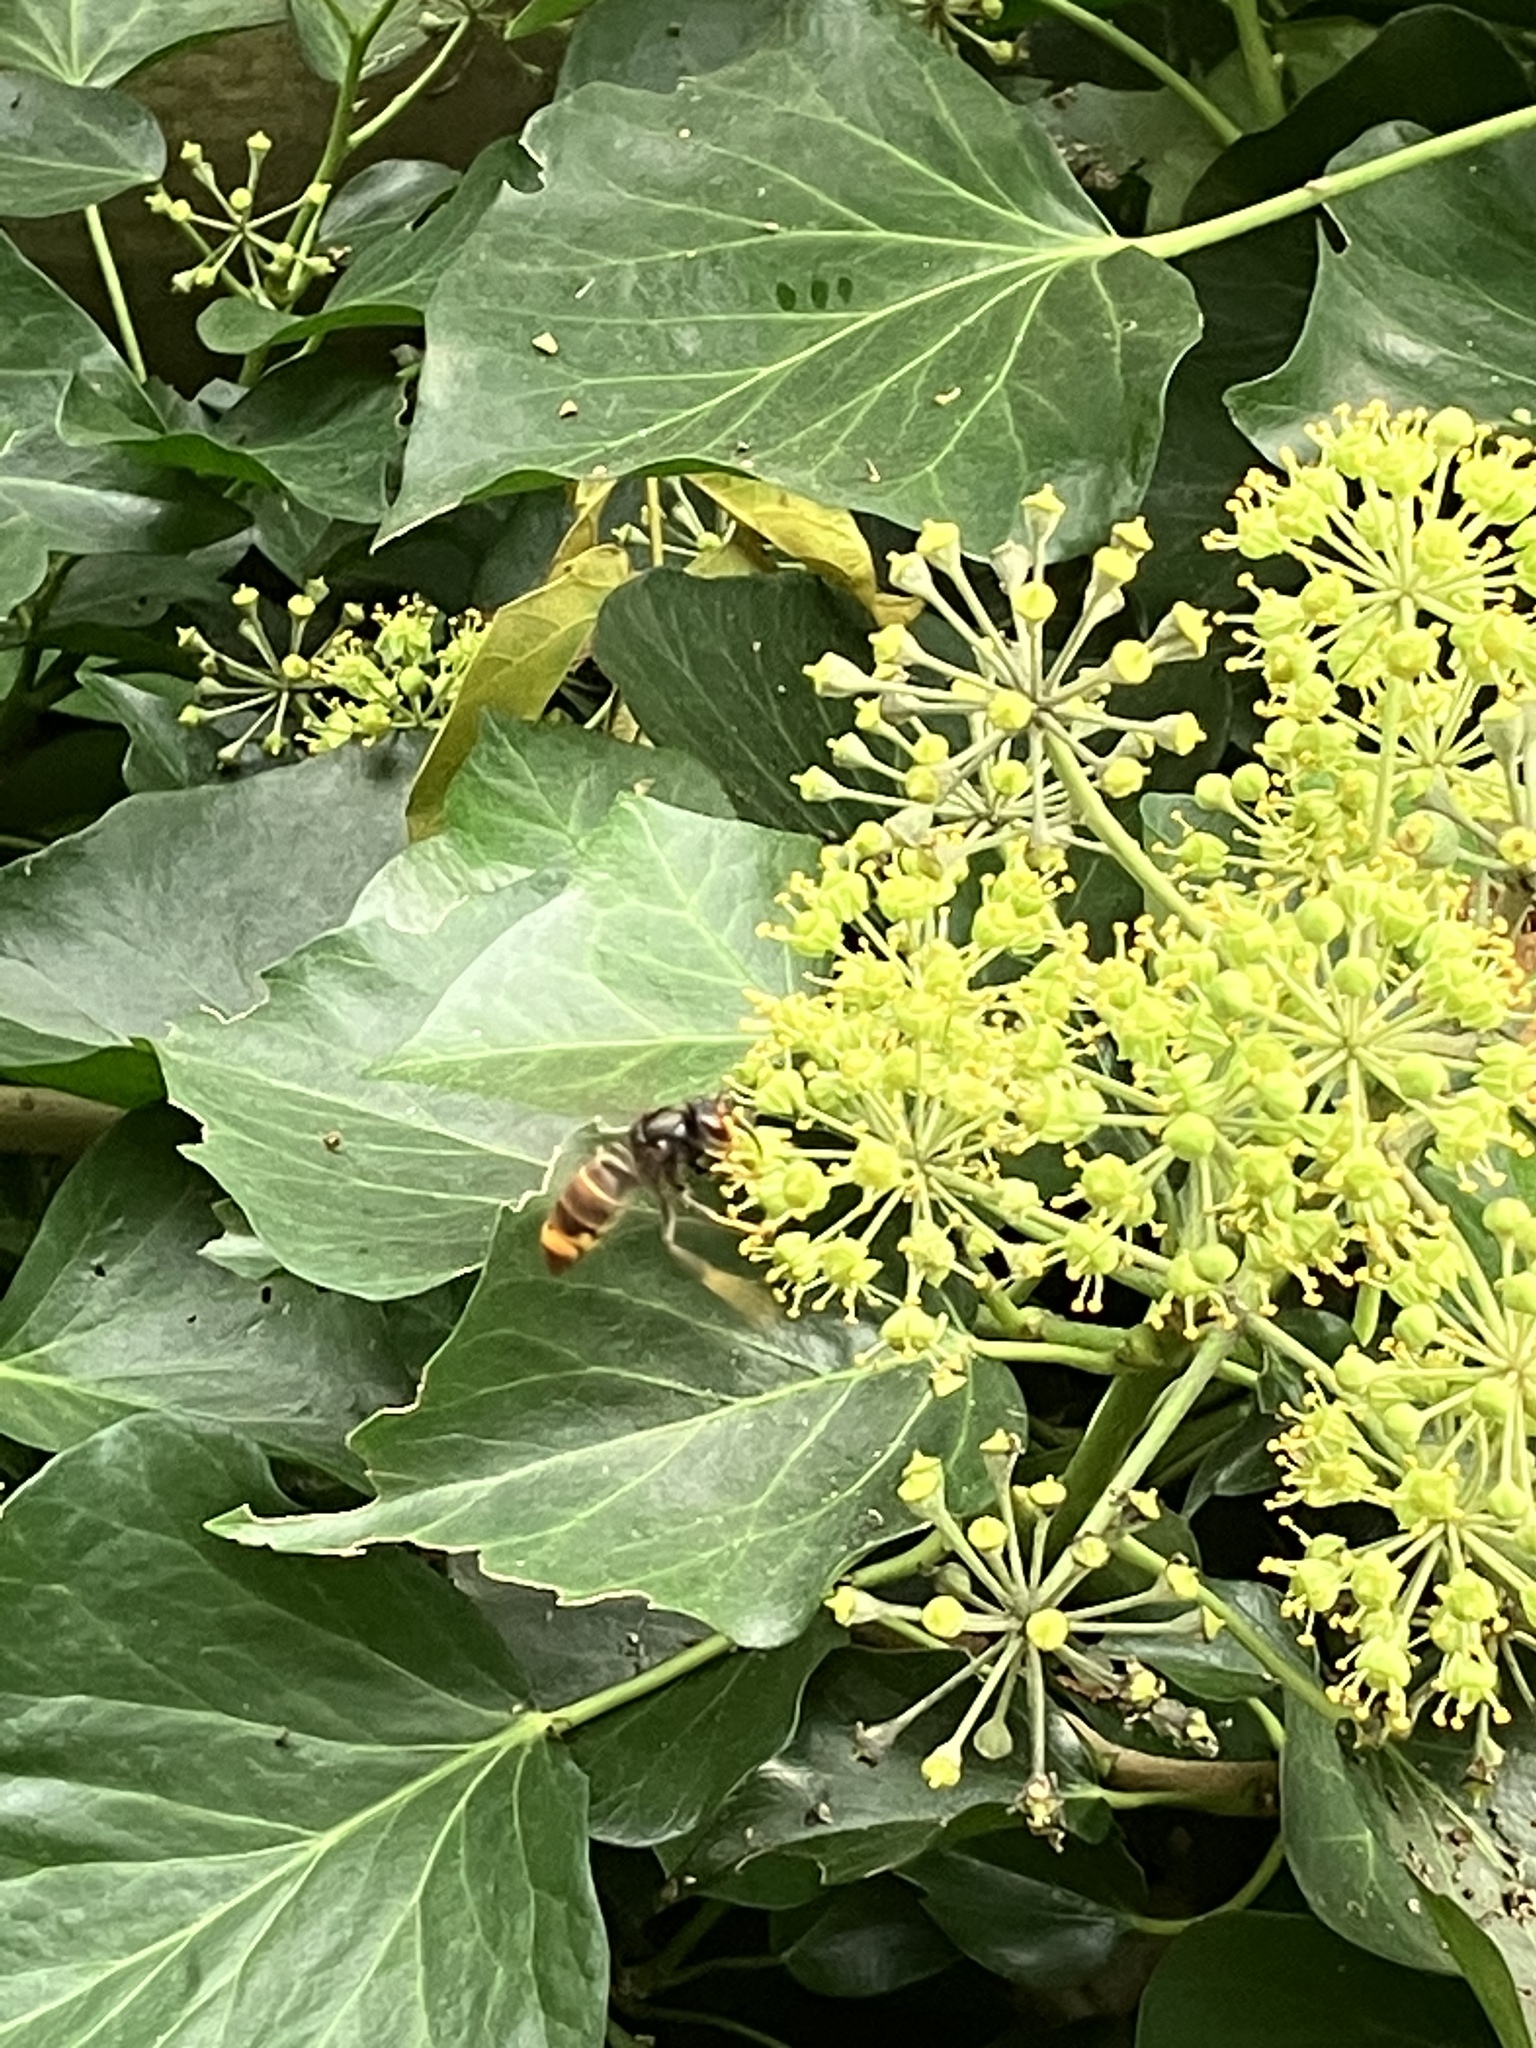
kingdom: Animalia
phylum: Arthropoda
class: Insecta
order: Hymenoptera
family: Vespidae
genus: Vespa
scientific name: Vespa velutina
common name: Asian hornet
